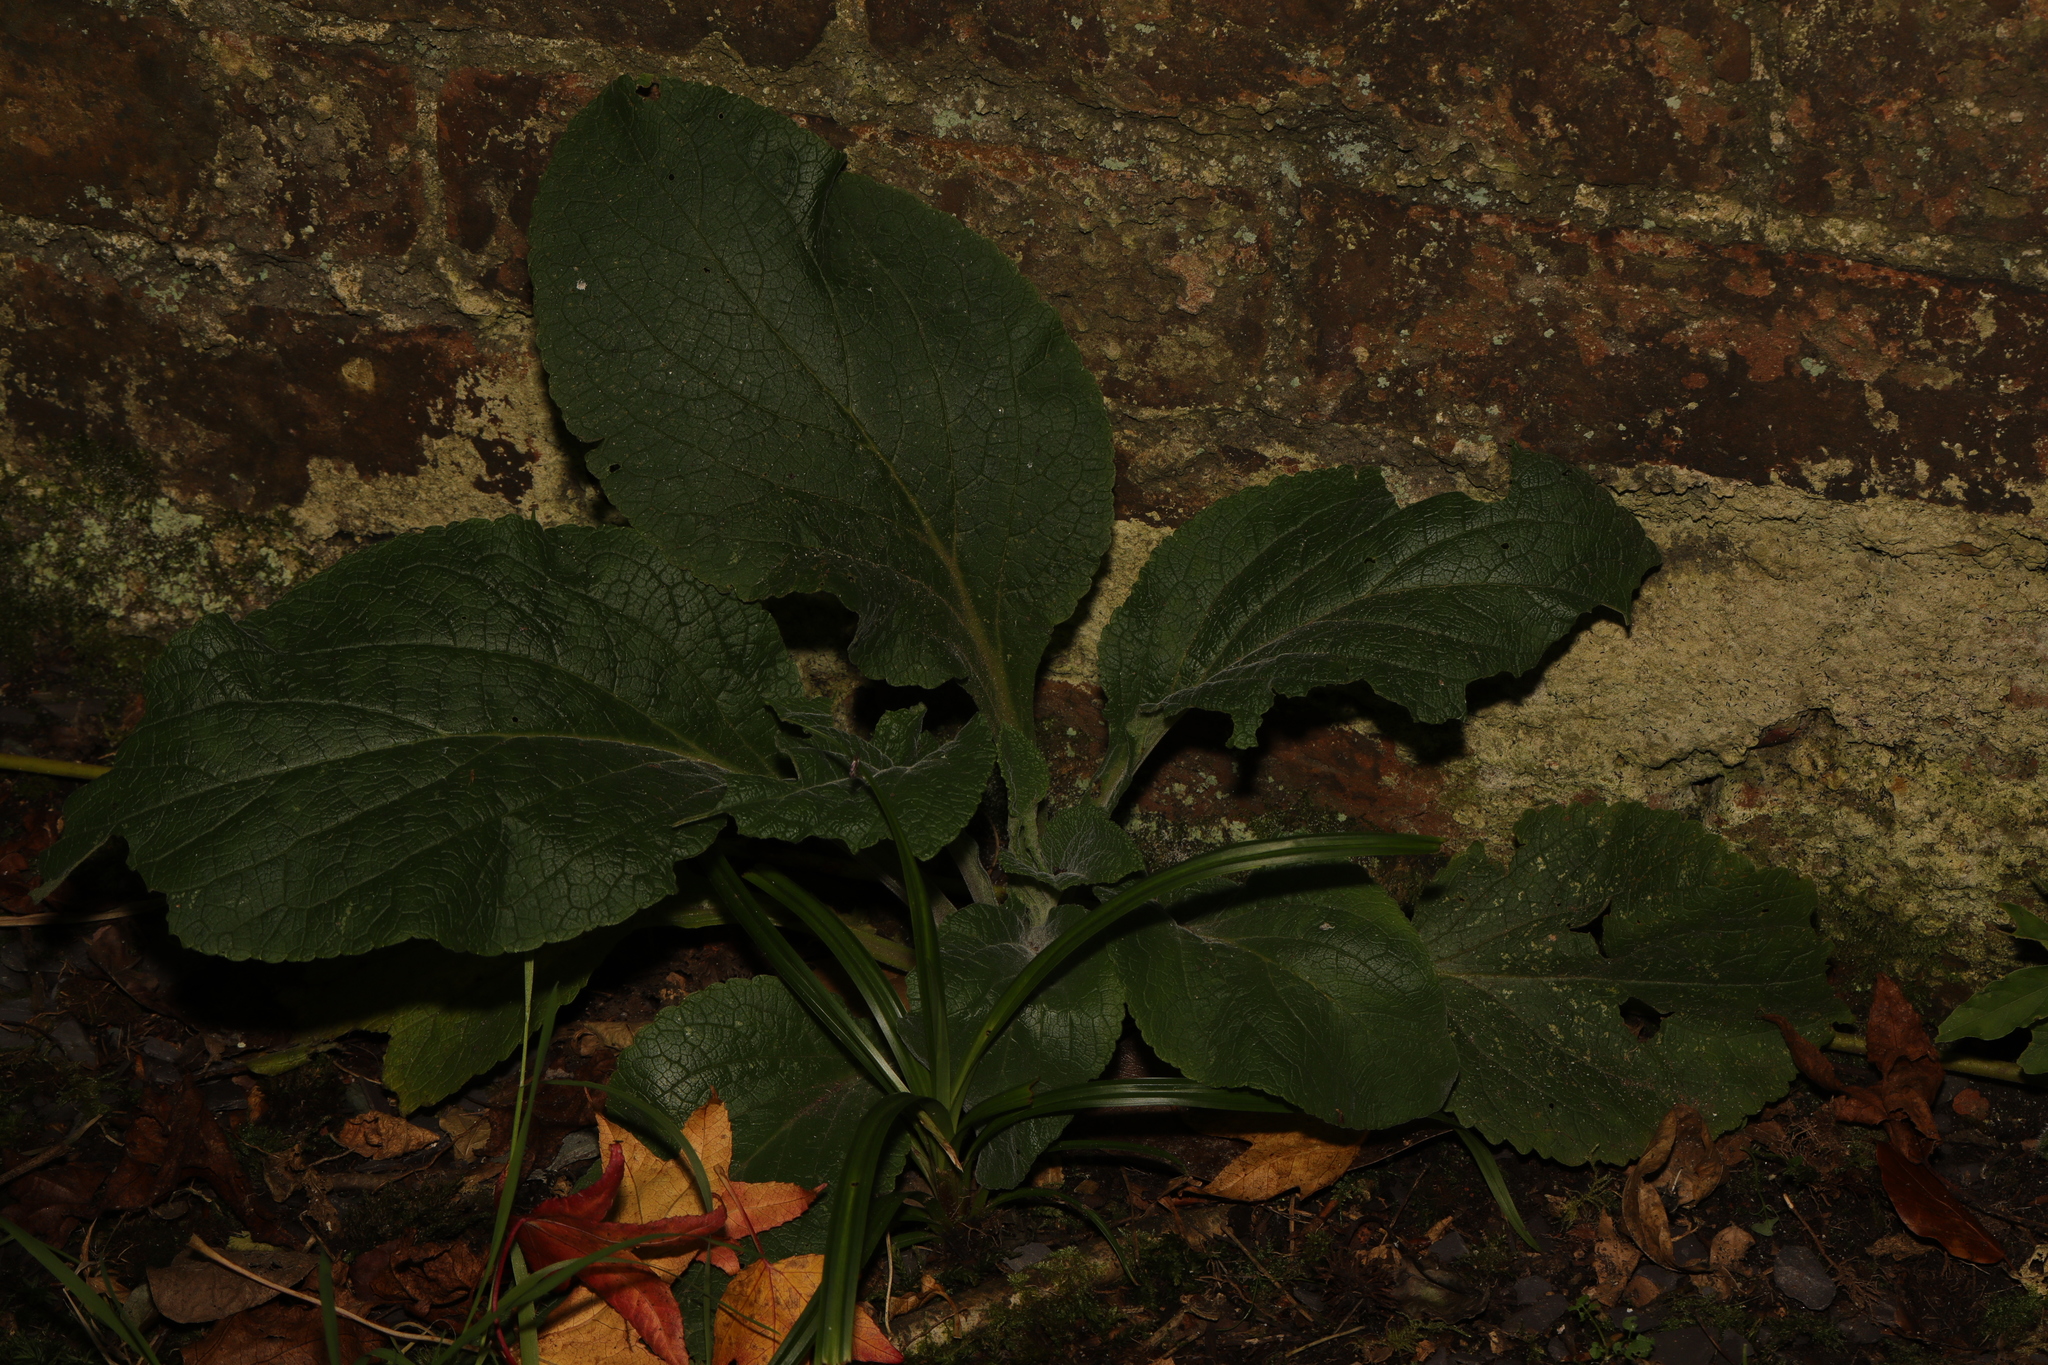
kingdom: Plantae
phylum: Tracheophyta
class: Magnoliopsida
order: Lamiales
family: Plantaginaceae
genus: Digitalis
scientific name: Digitalis purpurea
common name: Foxglove
